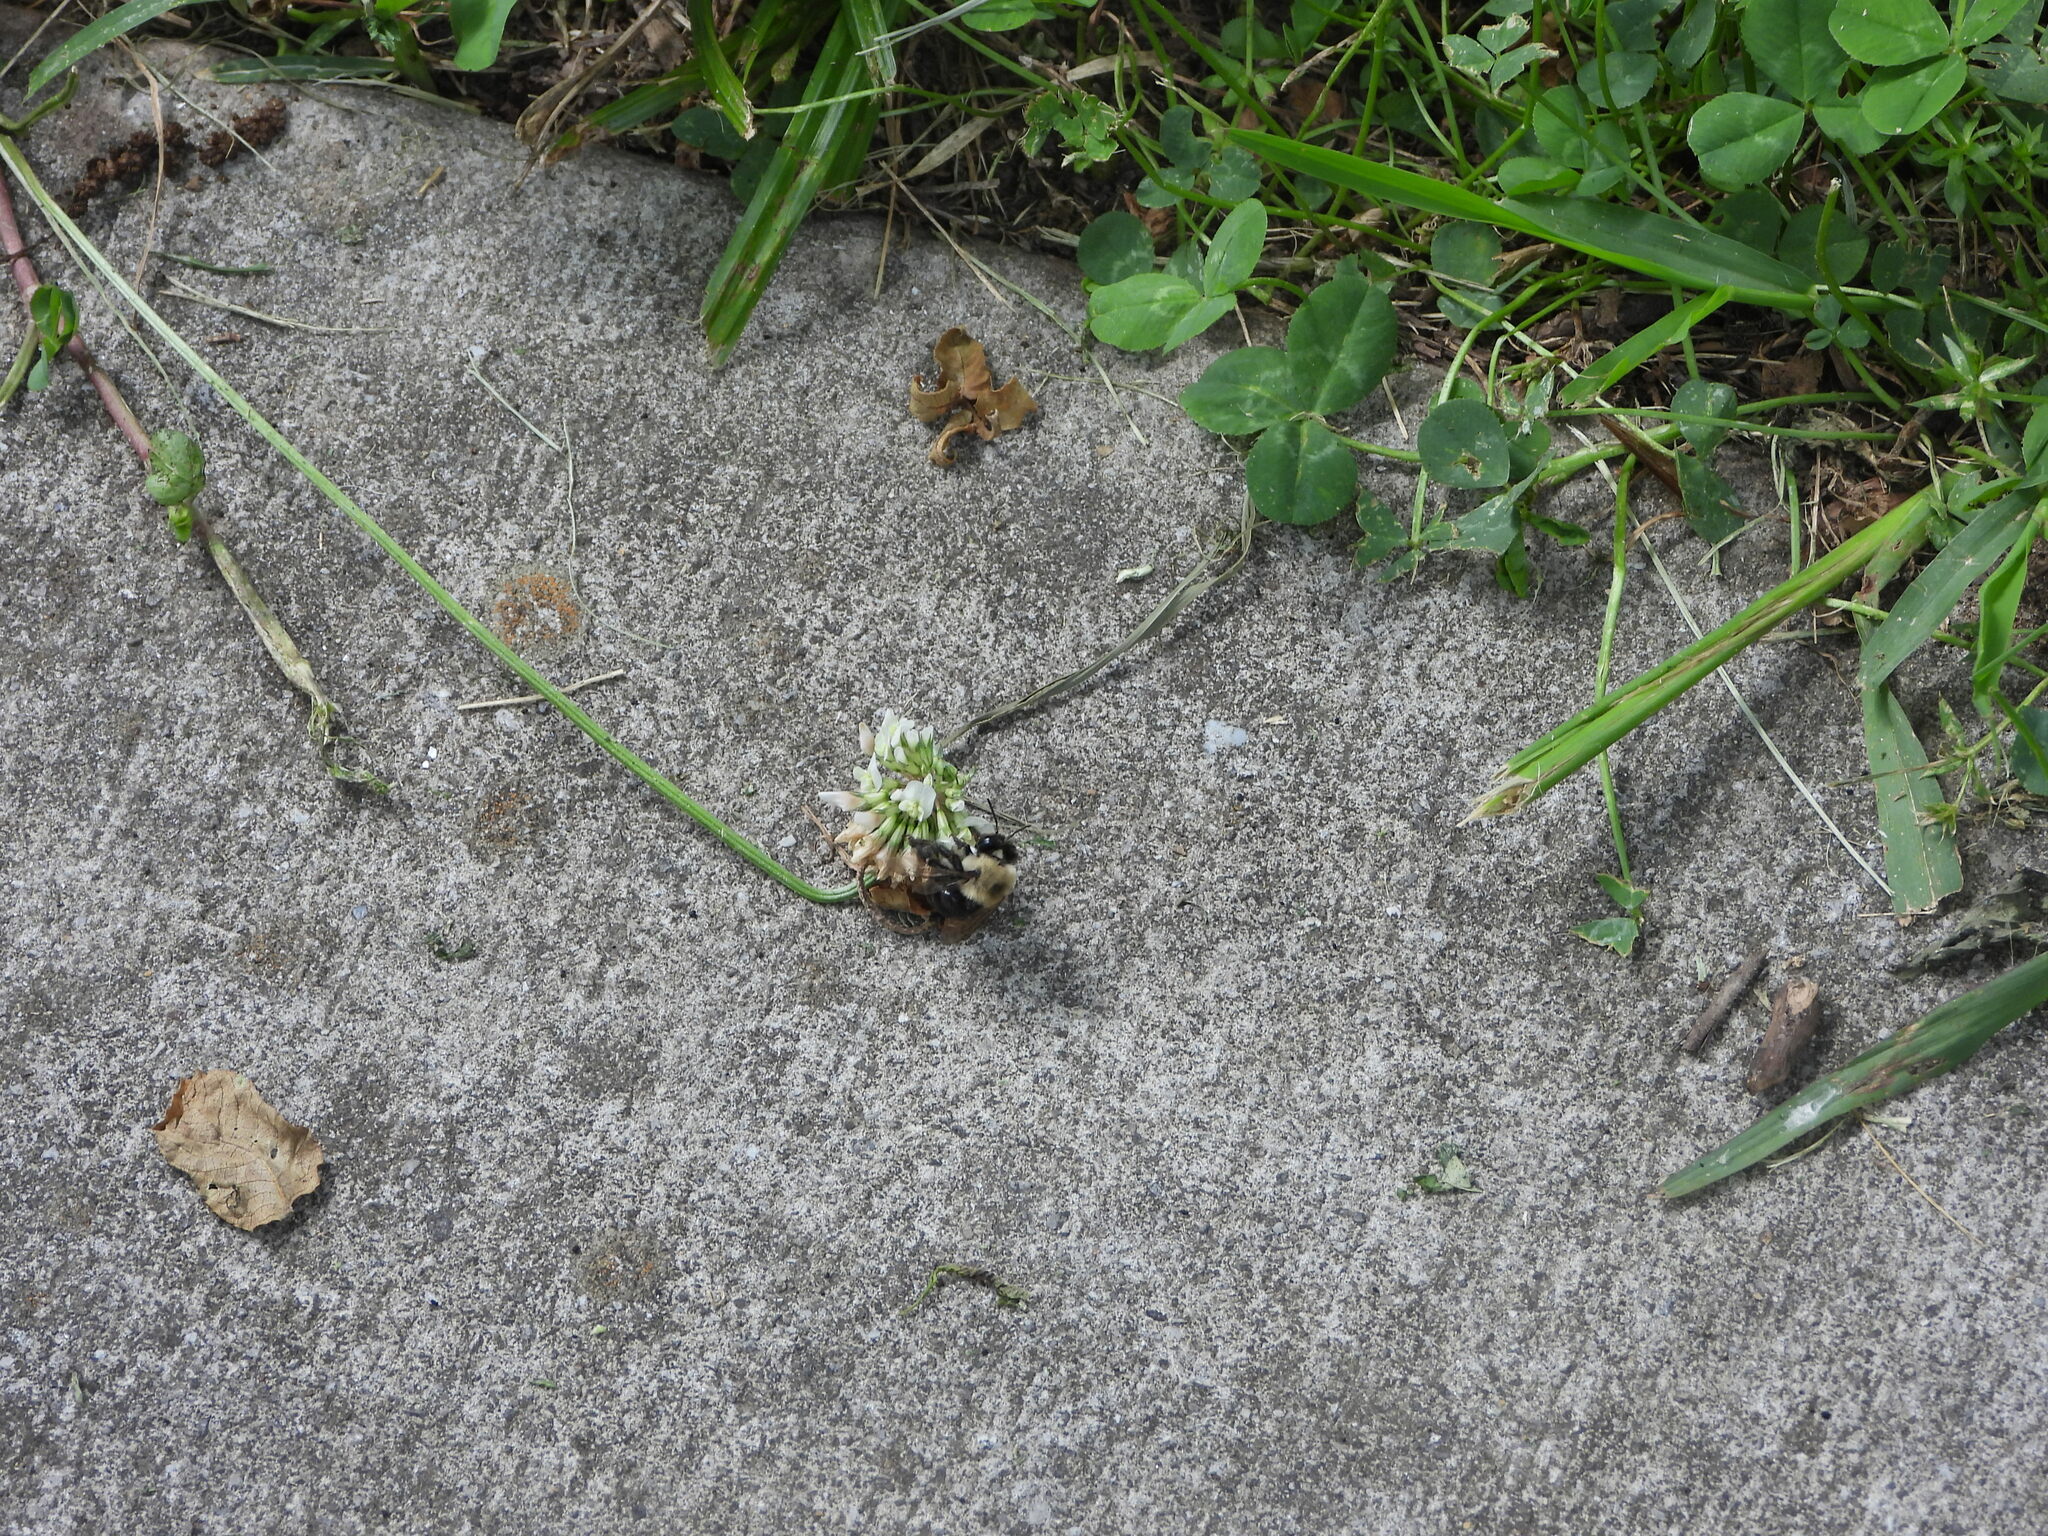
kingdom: Animalia
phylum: Arthropoda
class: Insecta
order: Hymenoptera
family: Apidae
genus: Anthophora
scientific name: Anthophora abrupta
